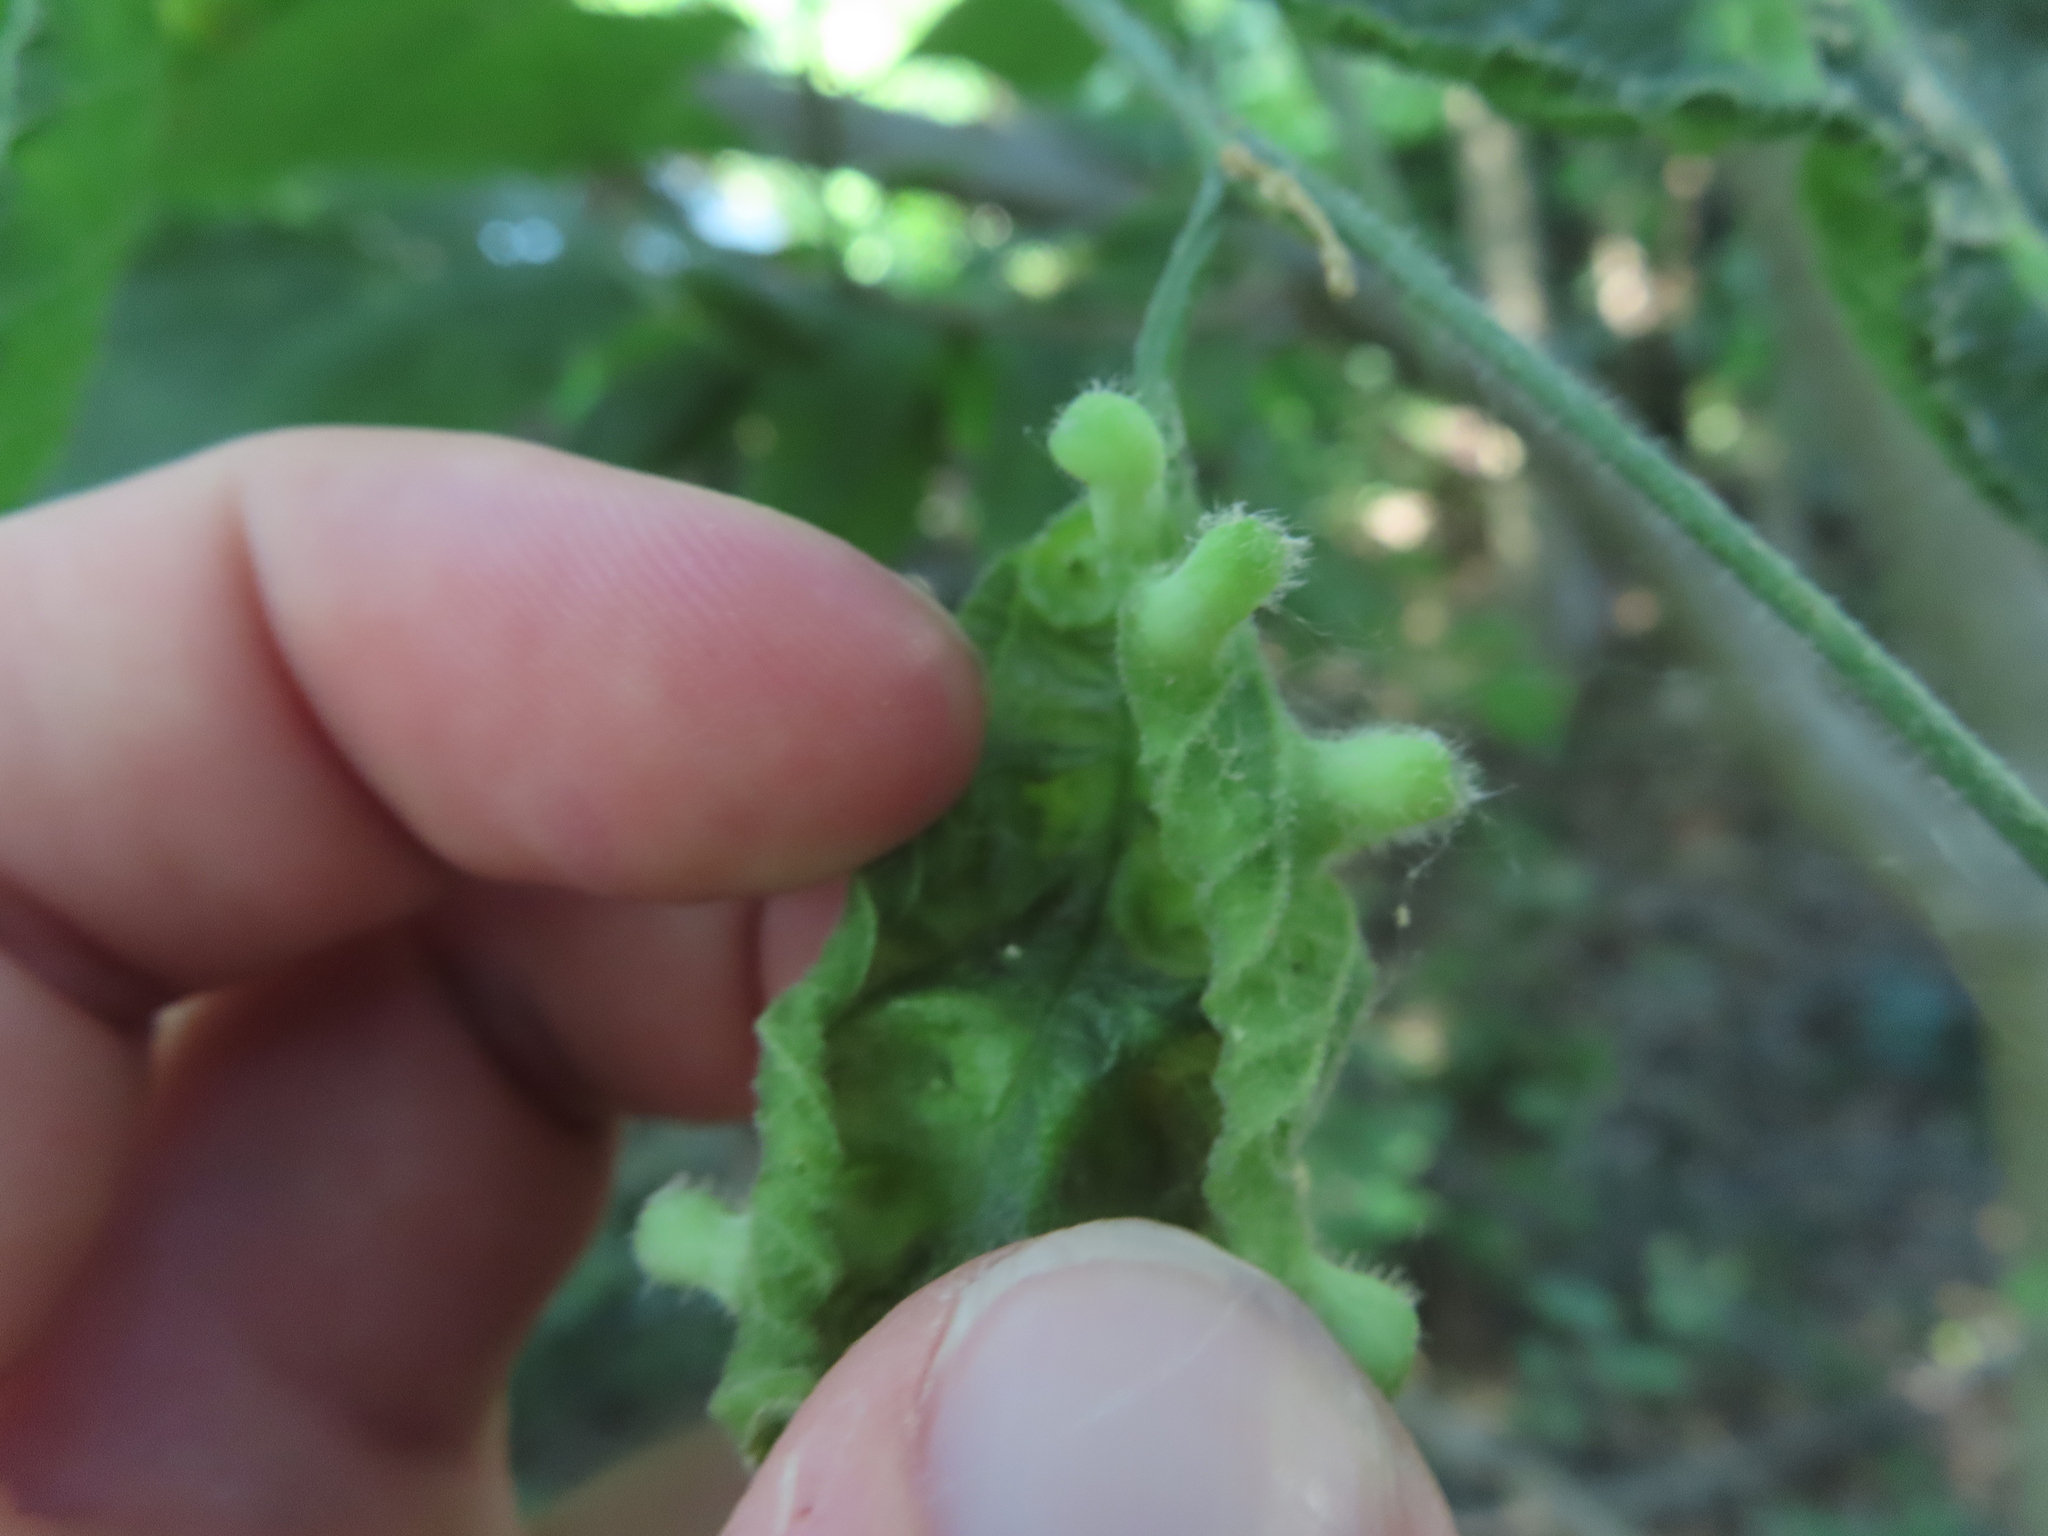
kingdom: Animalia
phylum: Arthropoda
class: Insecta
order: Hemiptera
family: Aphalaridae
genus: Pachypsylla
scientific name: Pachypsylla celtidismamma
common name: Hackberry nipplegall psyllid
